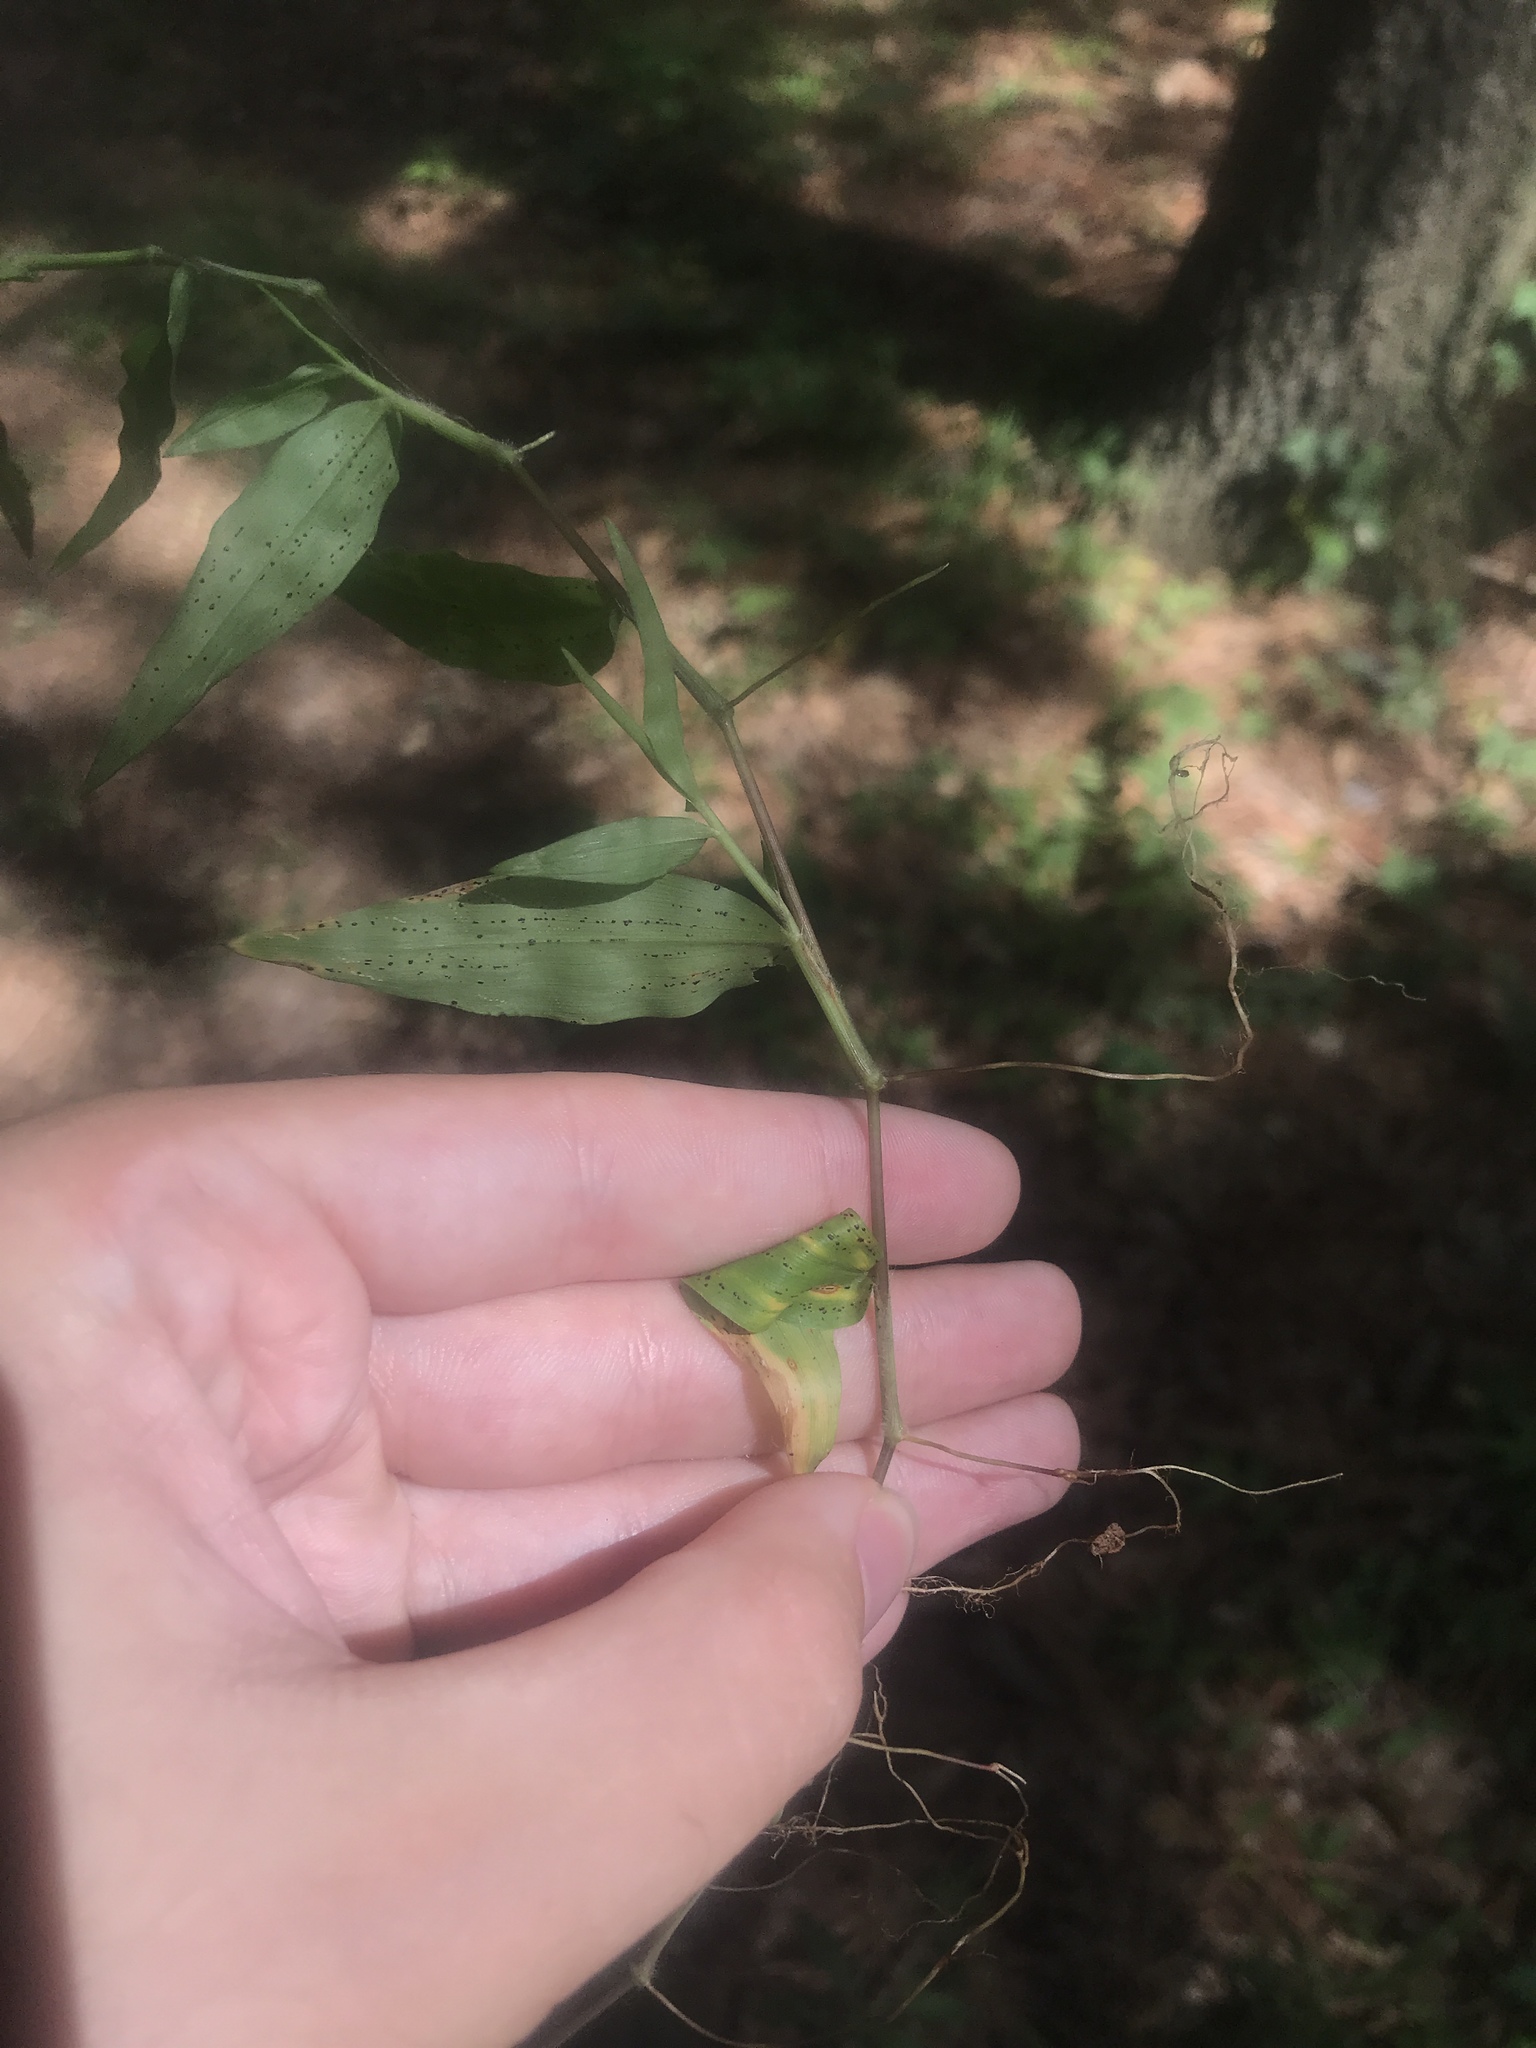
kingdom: Plantae
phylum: Tracheophyta
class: Liliopsida
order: Poales
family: Poaceae
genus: Oplismenus
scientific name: Oplismenus hirtellus
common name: Basketgrass
